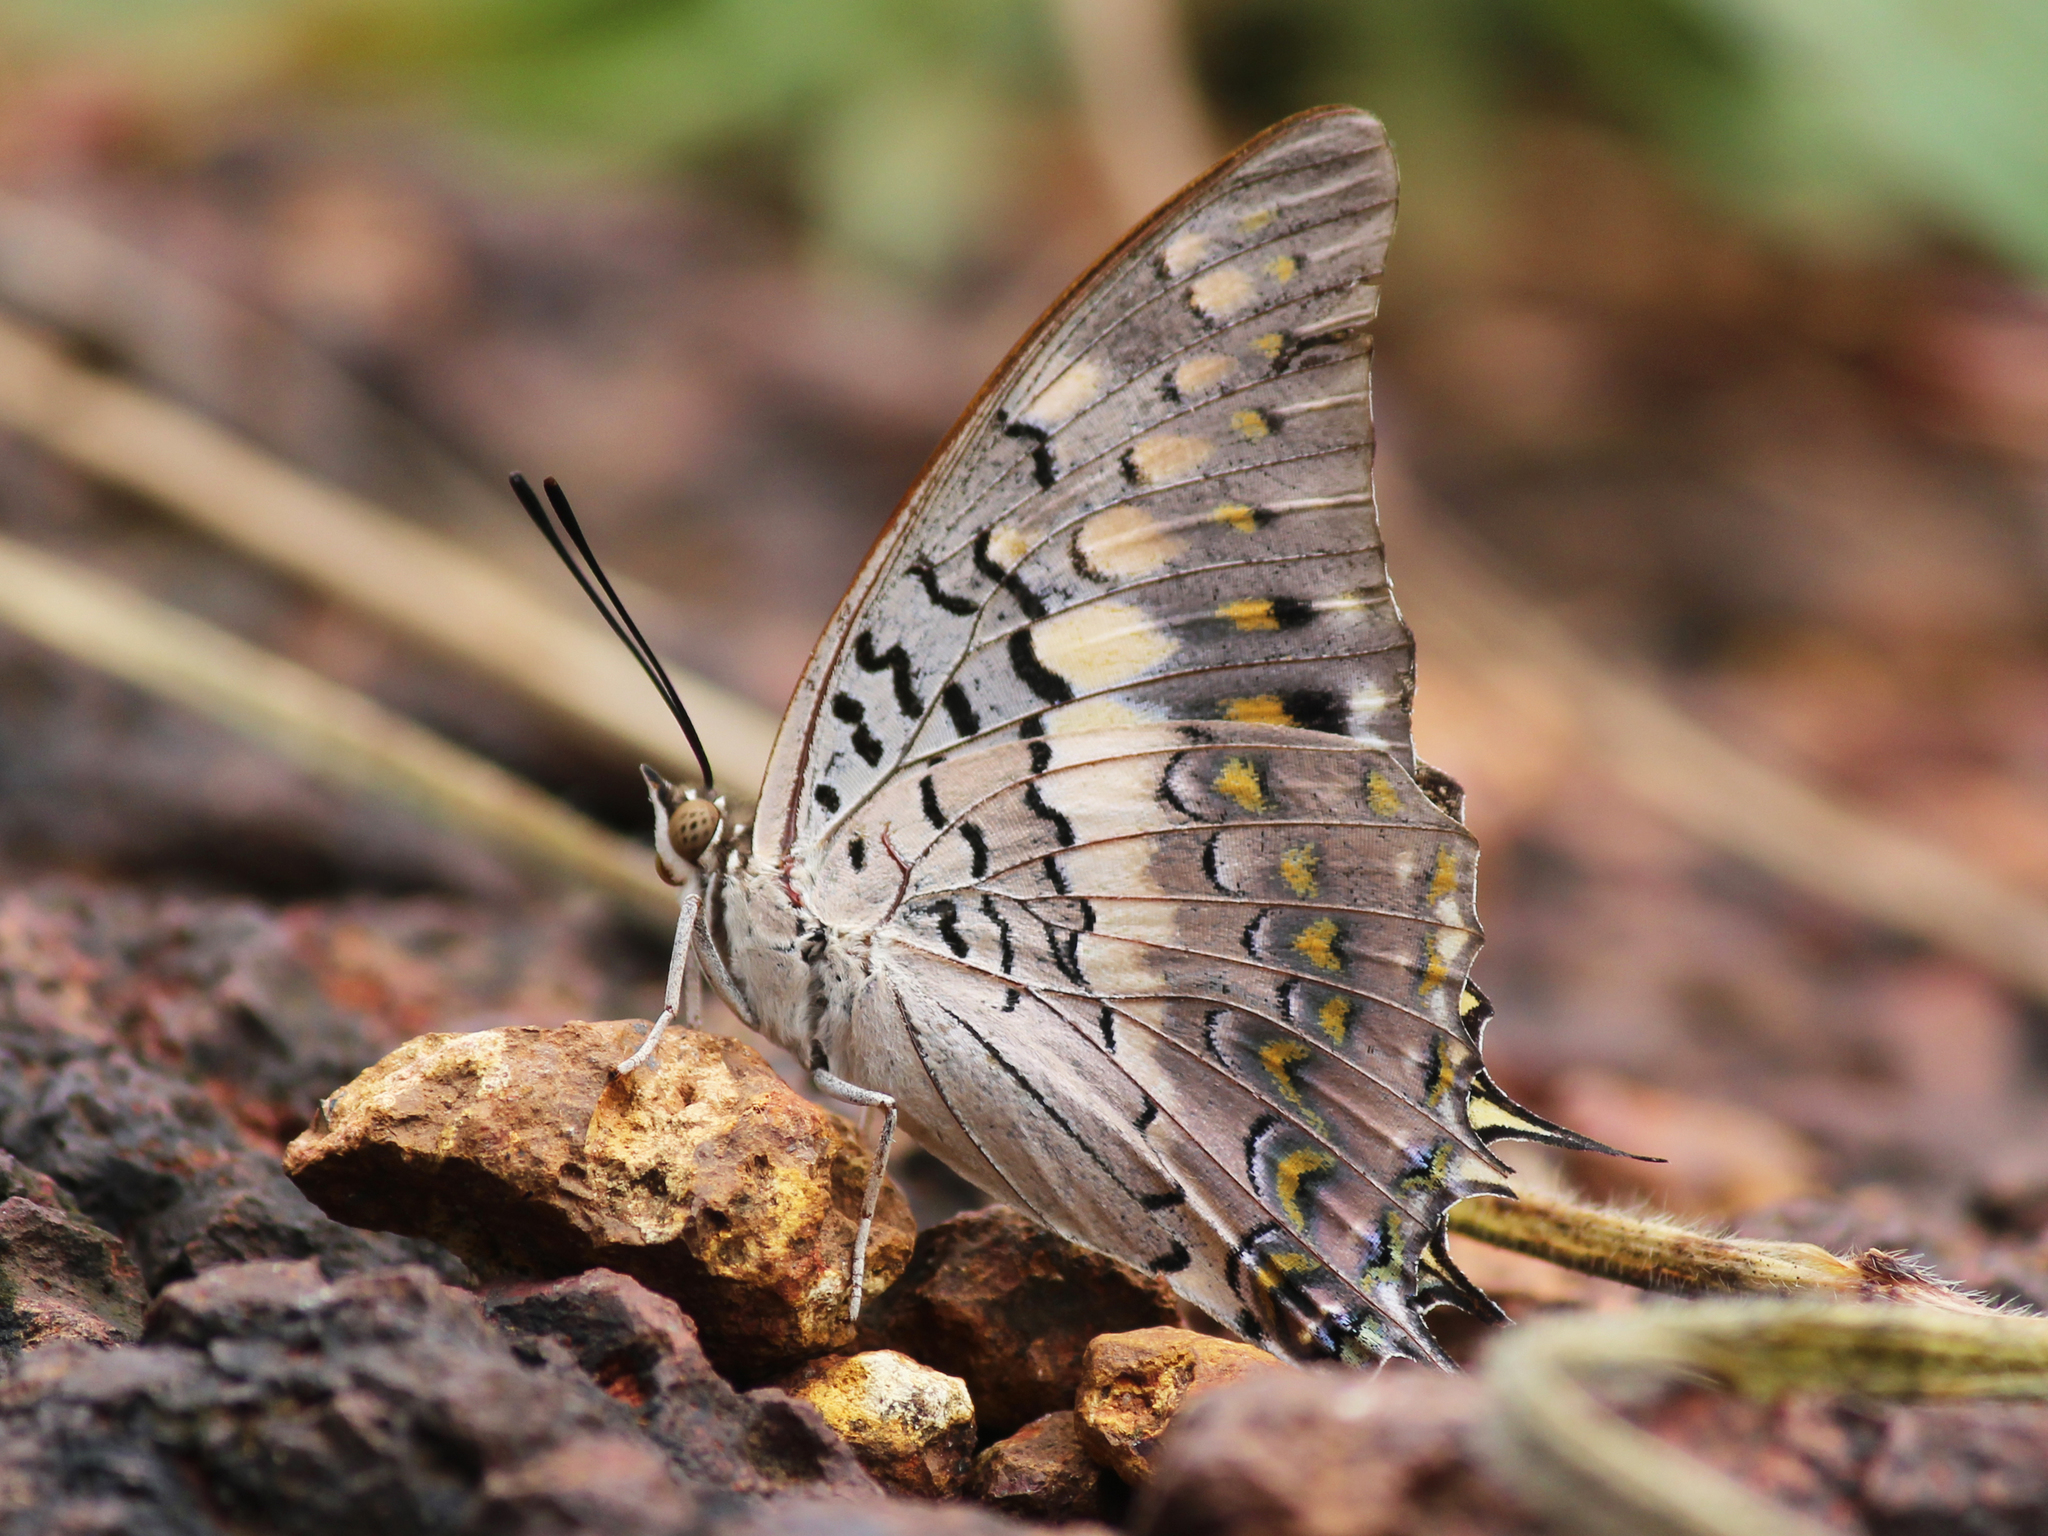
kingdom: Animalia
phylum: Arthropoda
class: Insecta
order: Lepidoptera
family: Nymphalidae
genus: Charaxes
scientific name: Charaxes solon
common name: Black rajah
